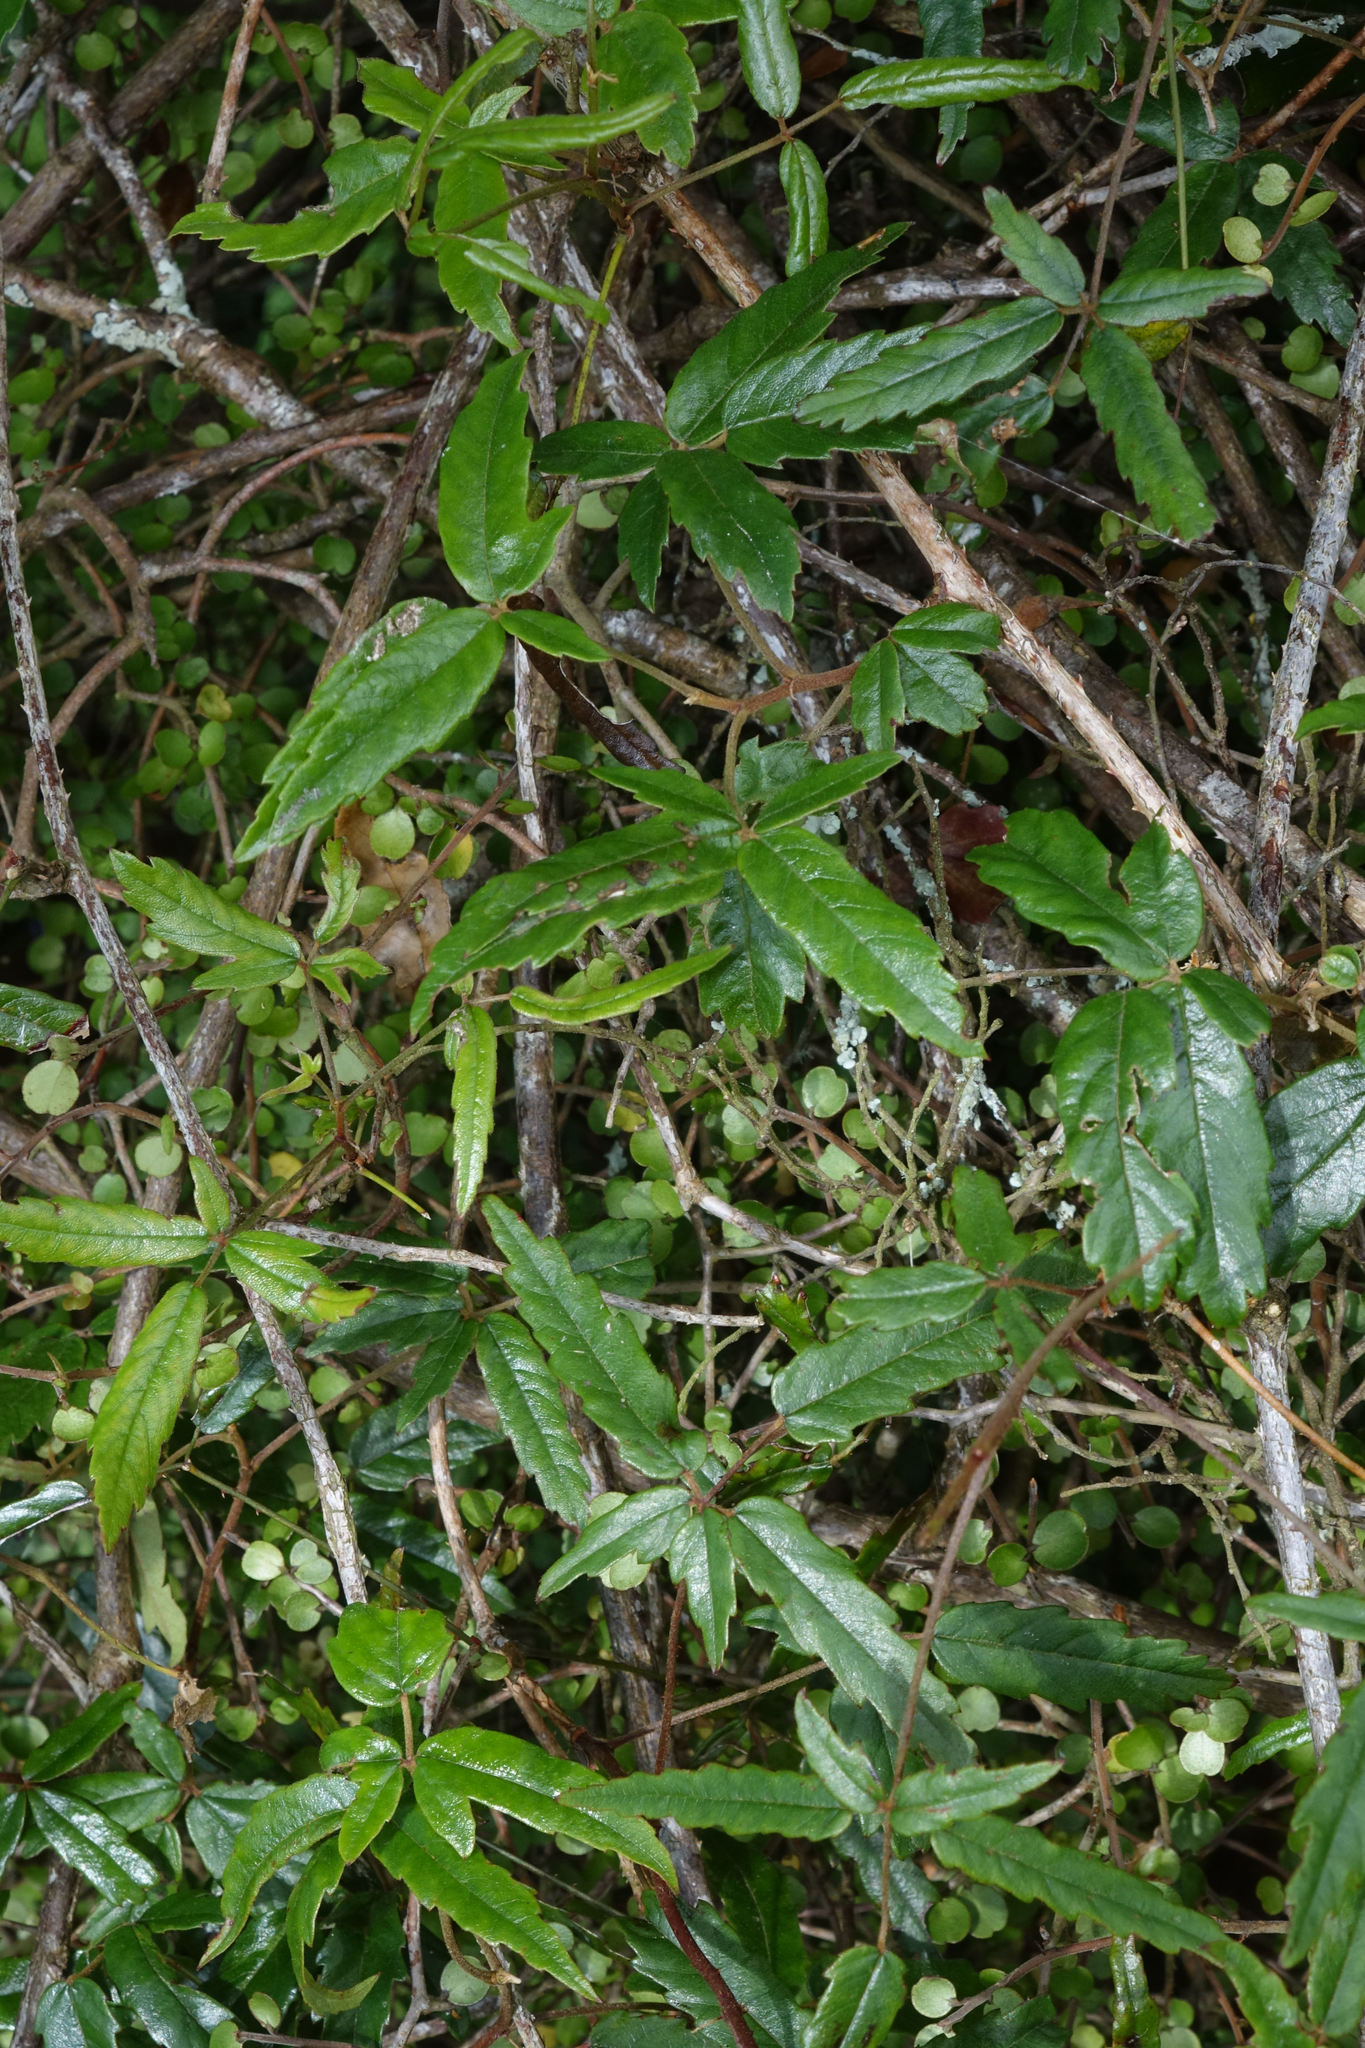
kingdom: Plantae
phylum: Tracheophyta
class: Magnoliopsida
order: Rosales
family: Rosaceae
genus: Rubus
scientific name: Rubus schmidelioides
